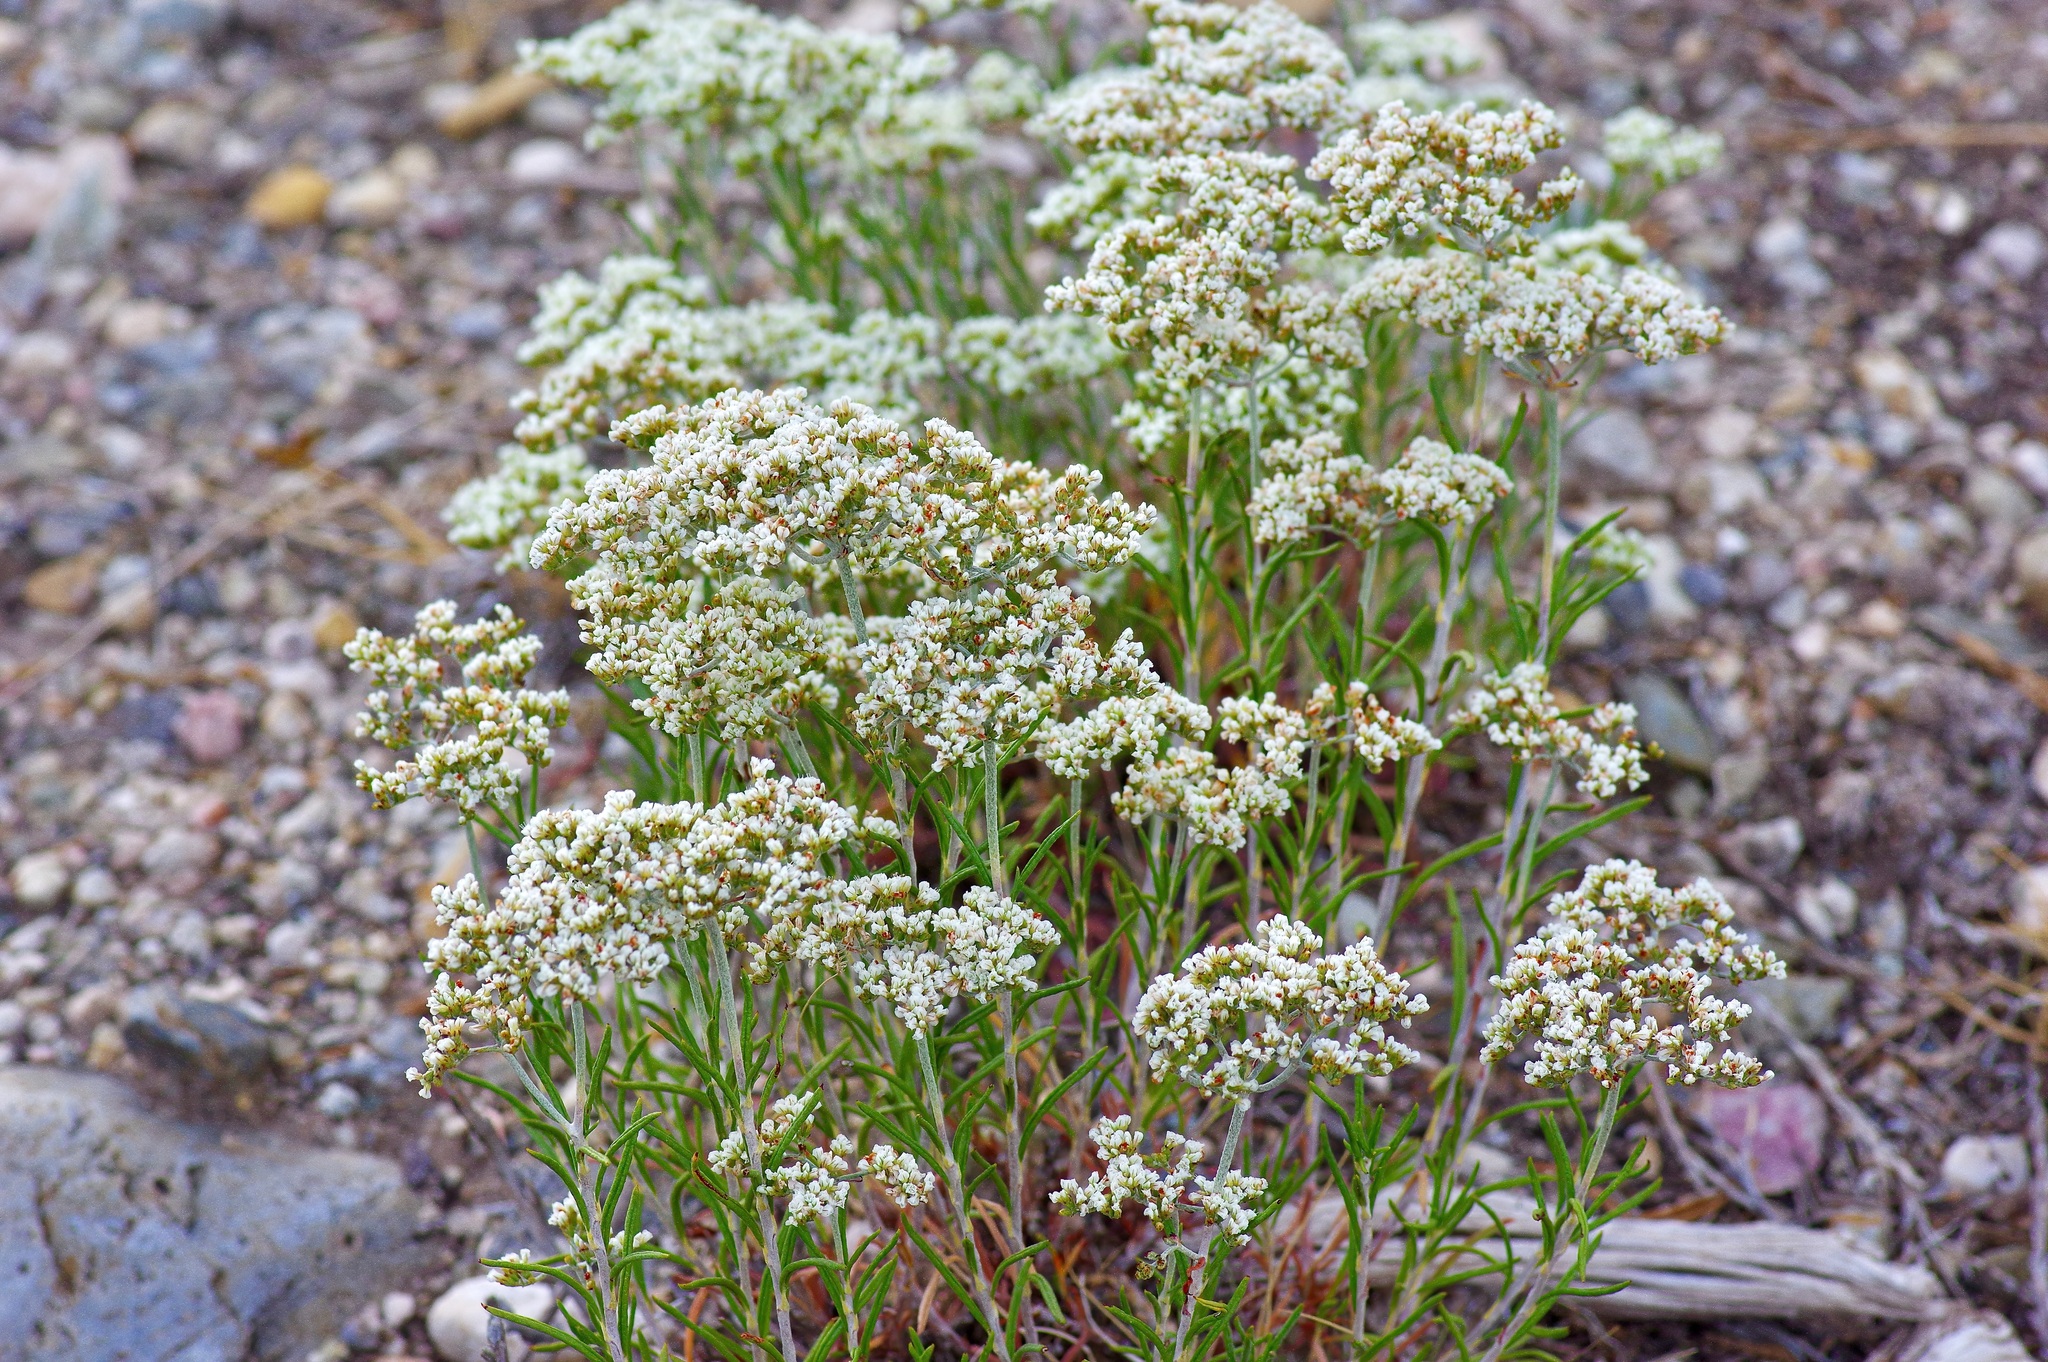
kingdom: Plantae
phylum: Tracheophyta
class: Magnoliopsida
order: Caryophyllales
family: Polygonaceae
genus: Eriogonum
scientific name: Eriogonum microtheca
